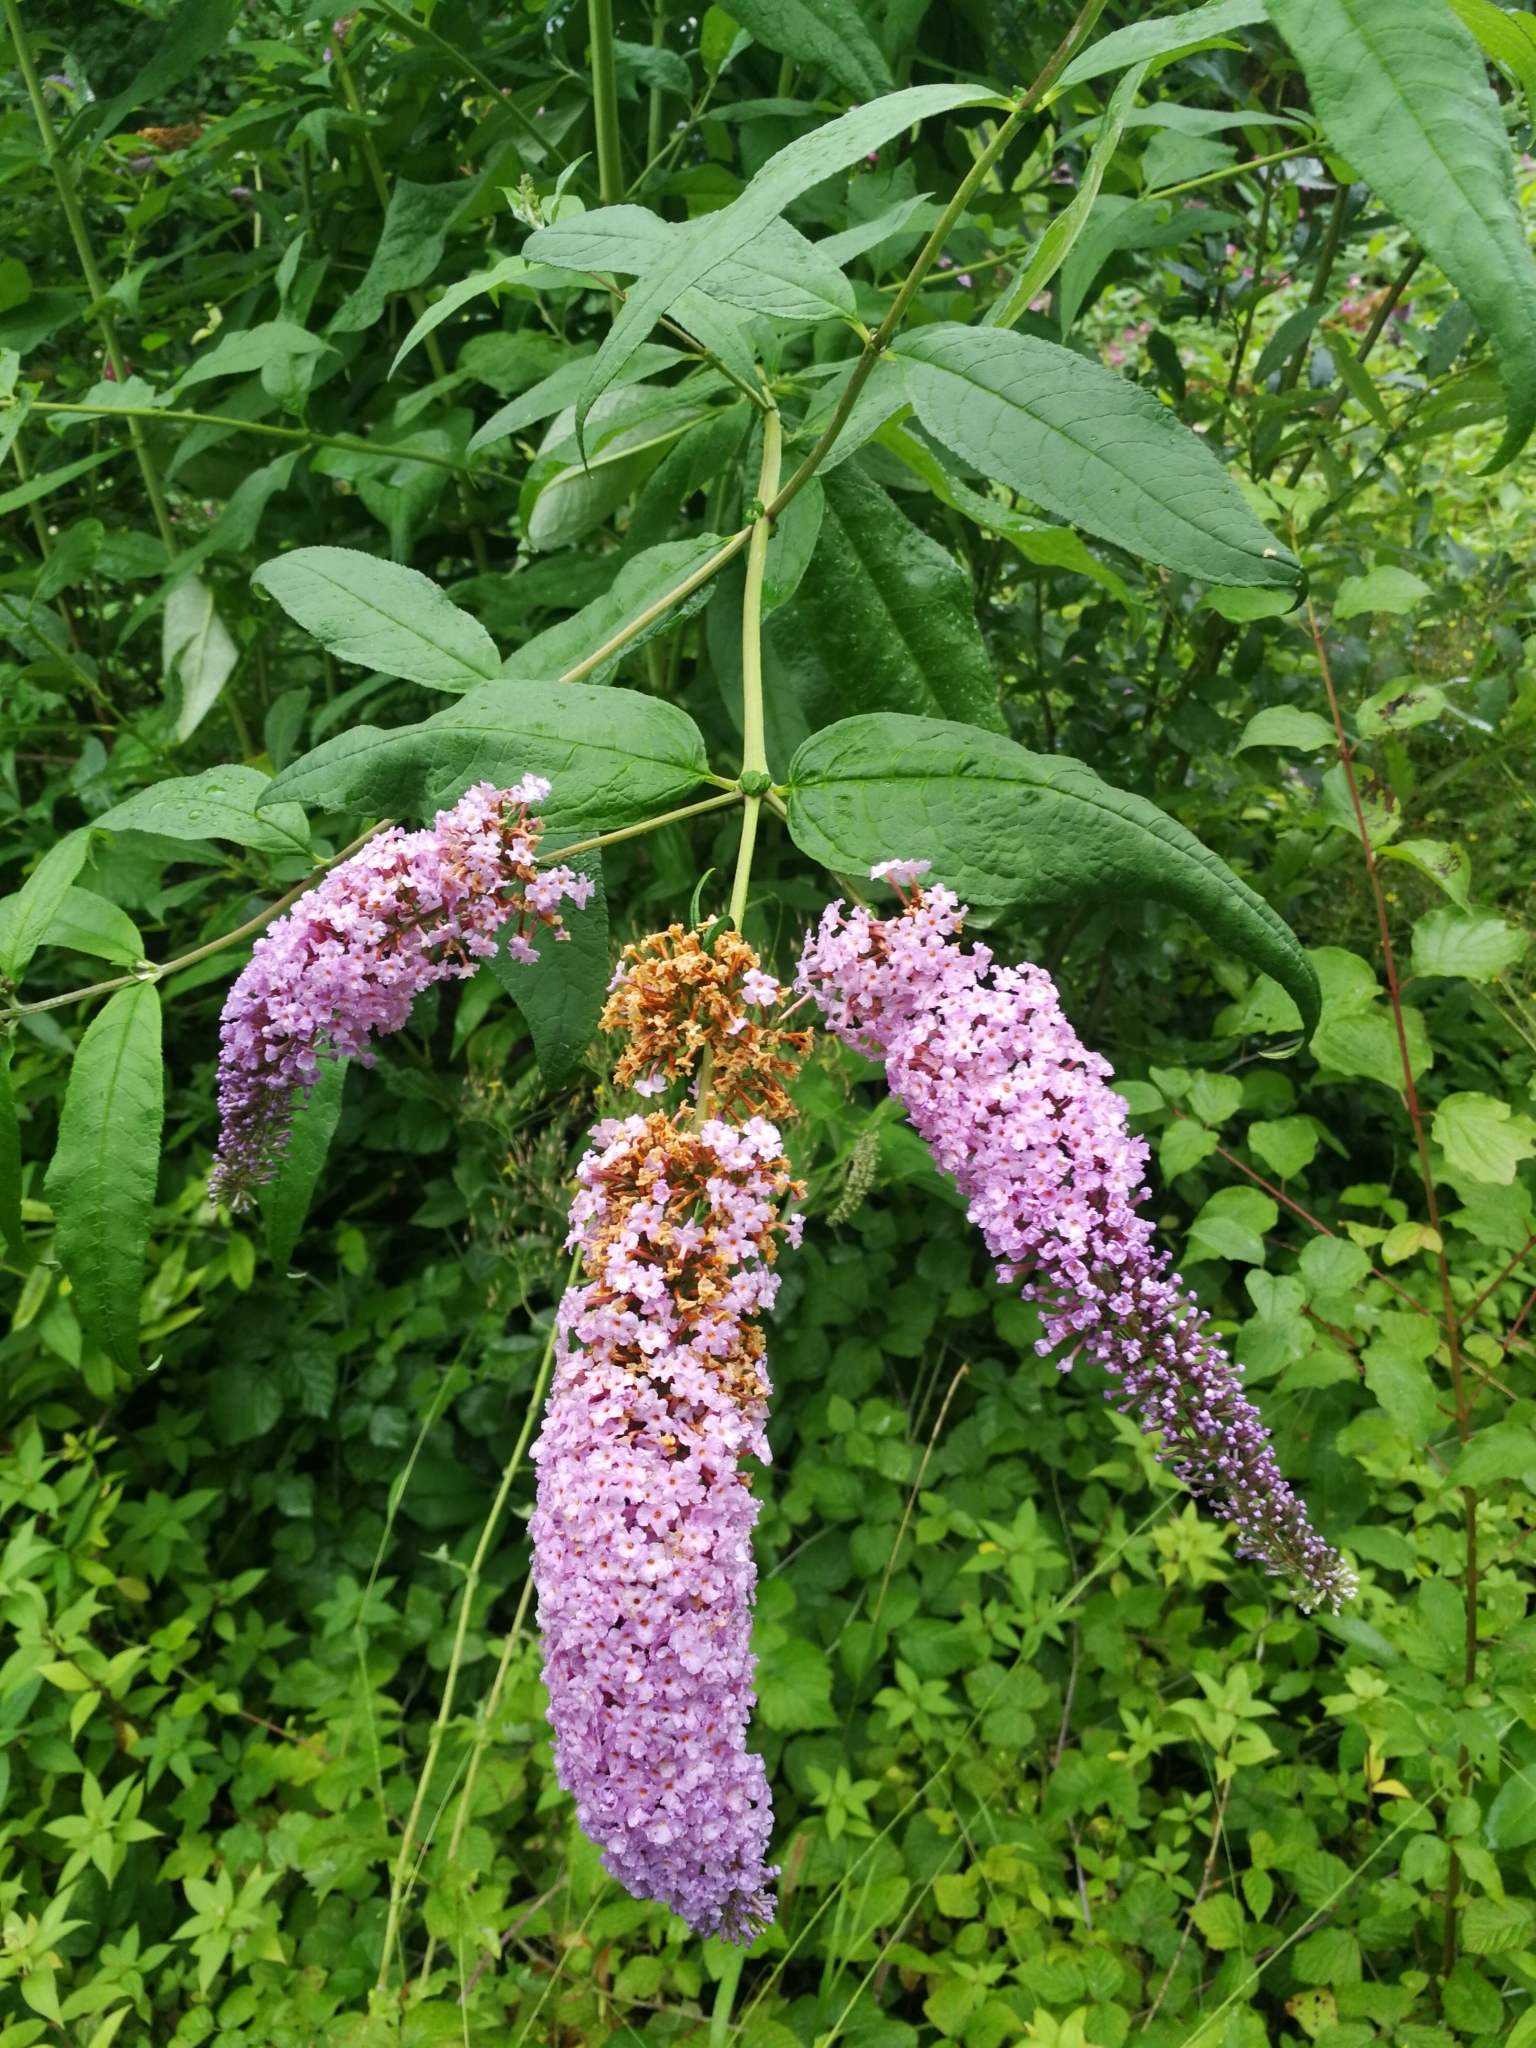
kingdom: Plantae
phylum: Tracheophyta
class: Magnoliopsida
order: Lamiales
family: Scrophulariaceae
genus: Buddleja
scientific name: Buddleja davidii
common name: Butterfly-bush
